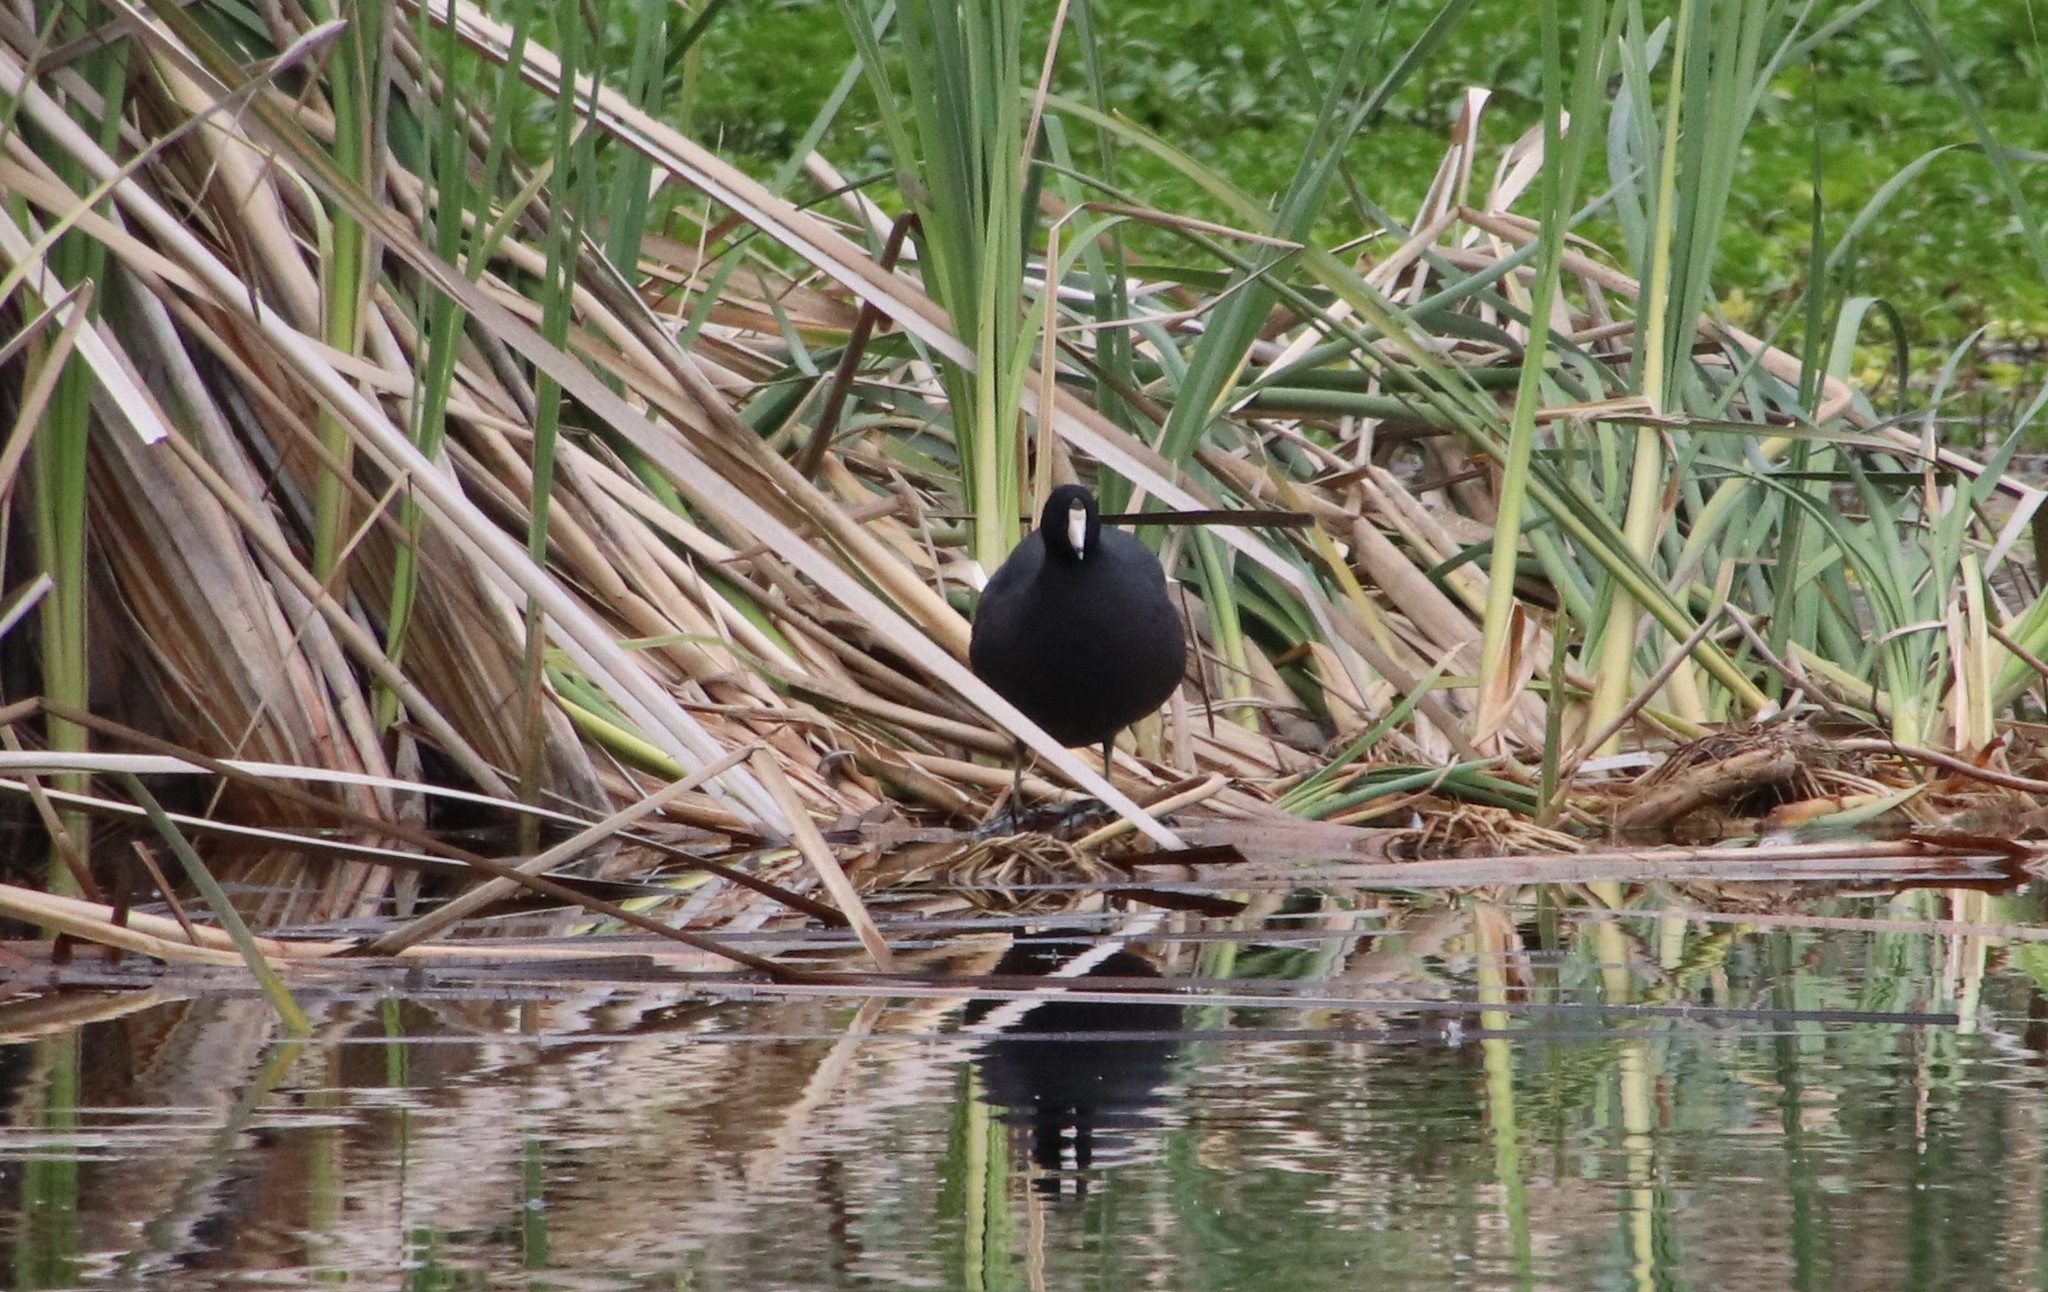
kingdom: Animalia
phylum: Chordata
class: Aves
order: Gruiformes
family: Rallidae
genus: Fulica
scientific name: Fulica americana
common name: American coot
